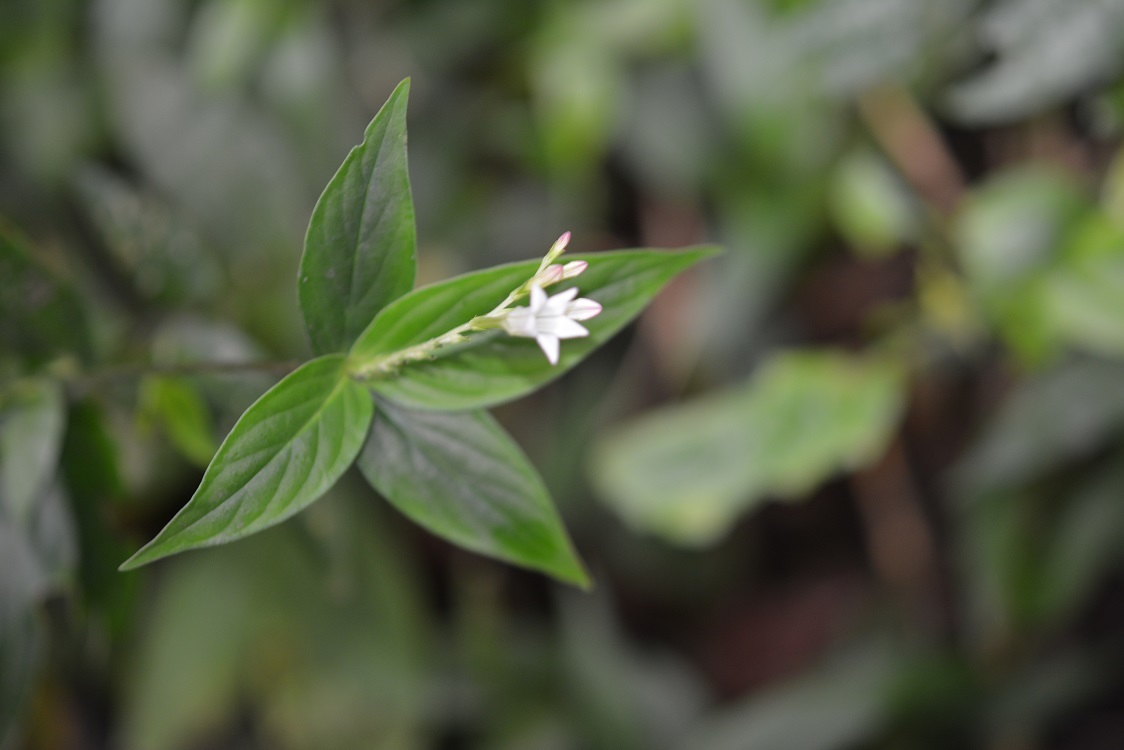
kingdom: Plantae
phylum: Tracheophyta
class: Magnoliopsida
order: Gentianales
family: Loganiaceae
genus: Spigelia
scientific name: Spigelia humboldtiana
